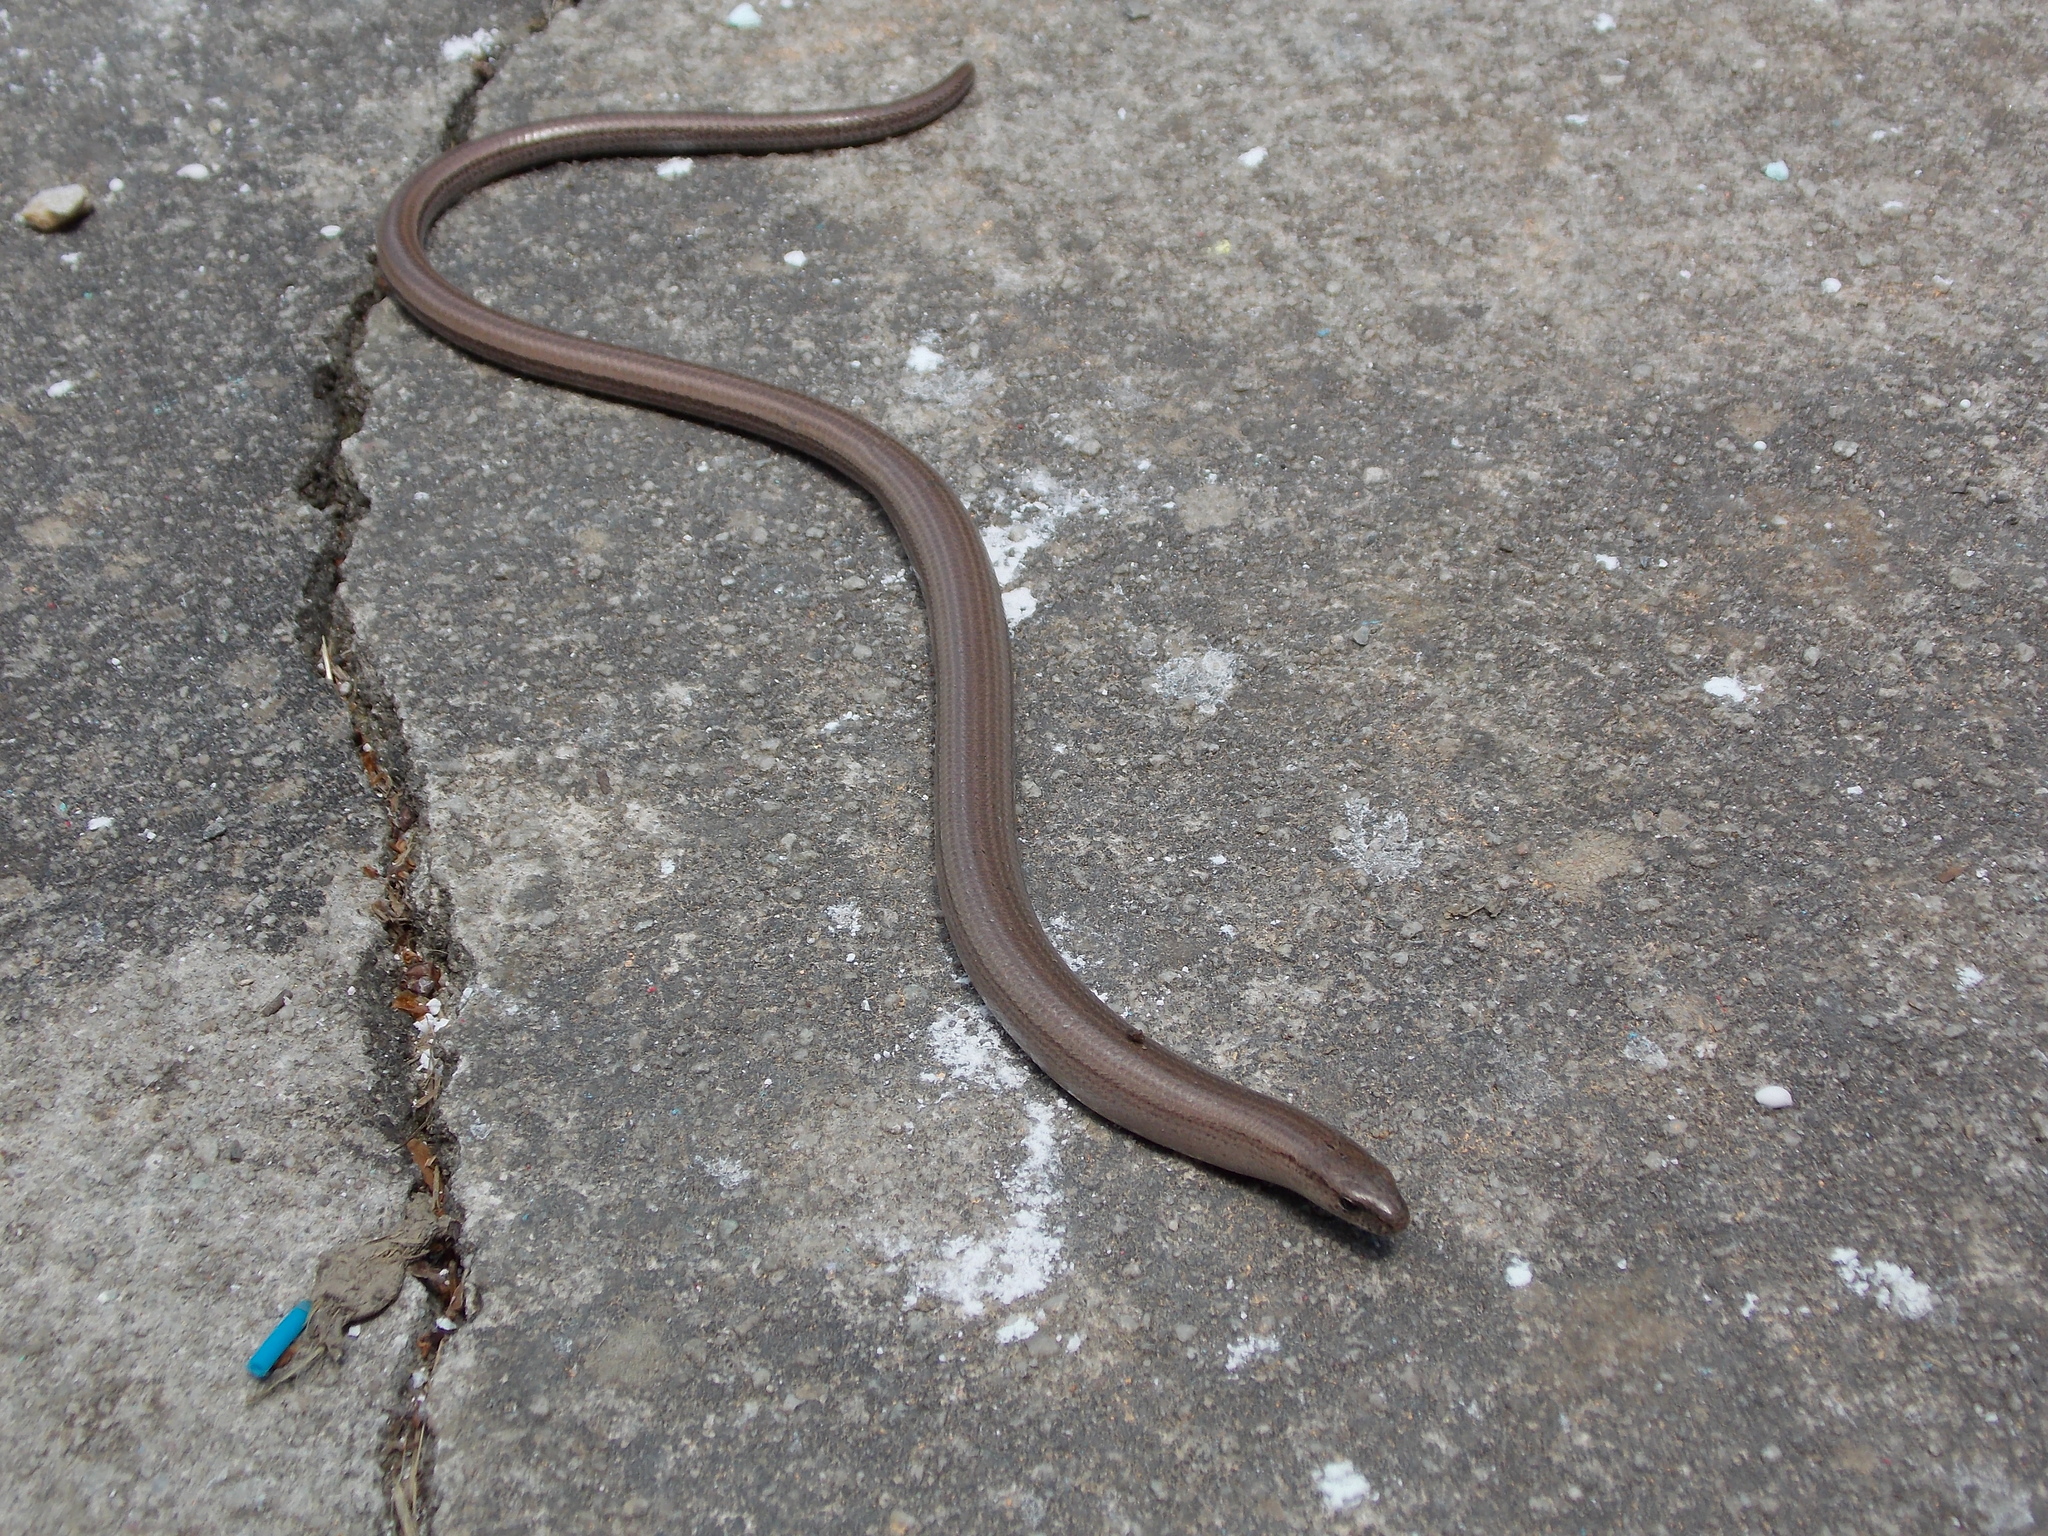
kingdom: Animalia
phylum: Chordata
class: Squamata
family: Anguidae
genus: Anguis
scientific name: Anguis veronensis
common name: Italian slow worm
